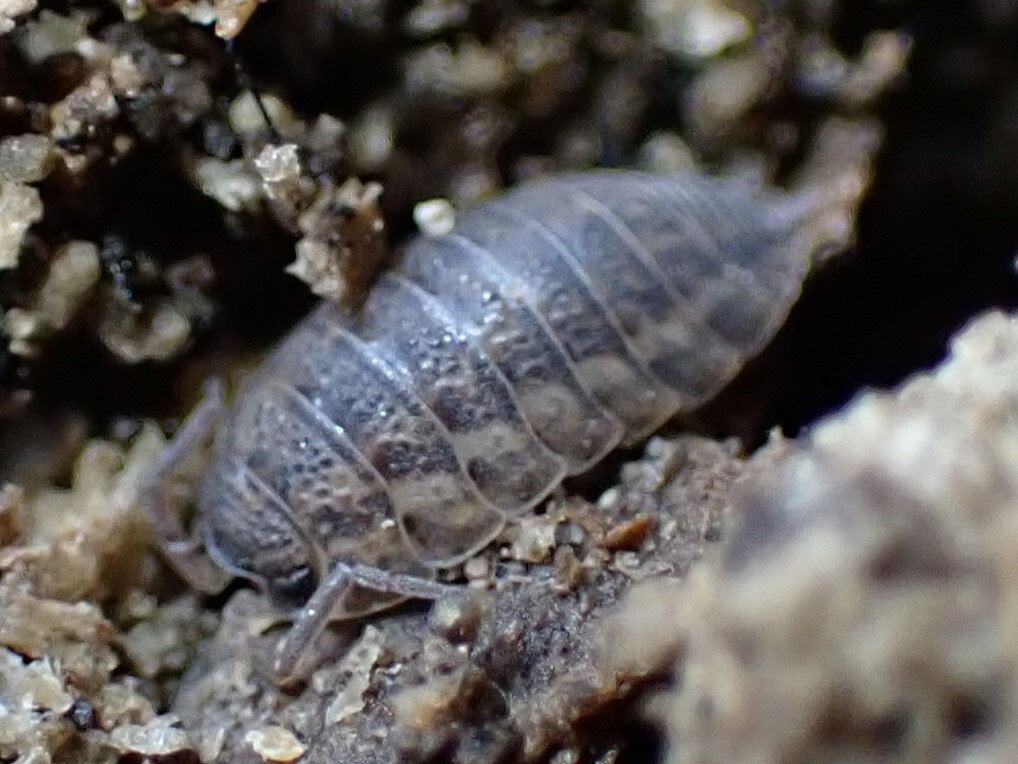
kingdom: Animalia
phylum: Arthropoda
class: Malacostraca
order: Isopoda
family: Trachelipodidae
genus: Trachelipus
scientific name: Trachelipus rathkii
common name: Isopod
